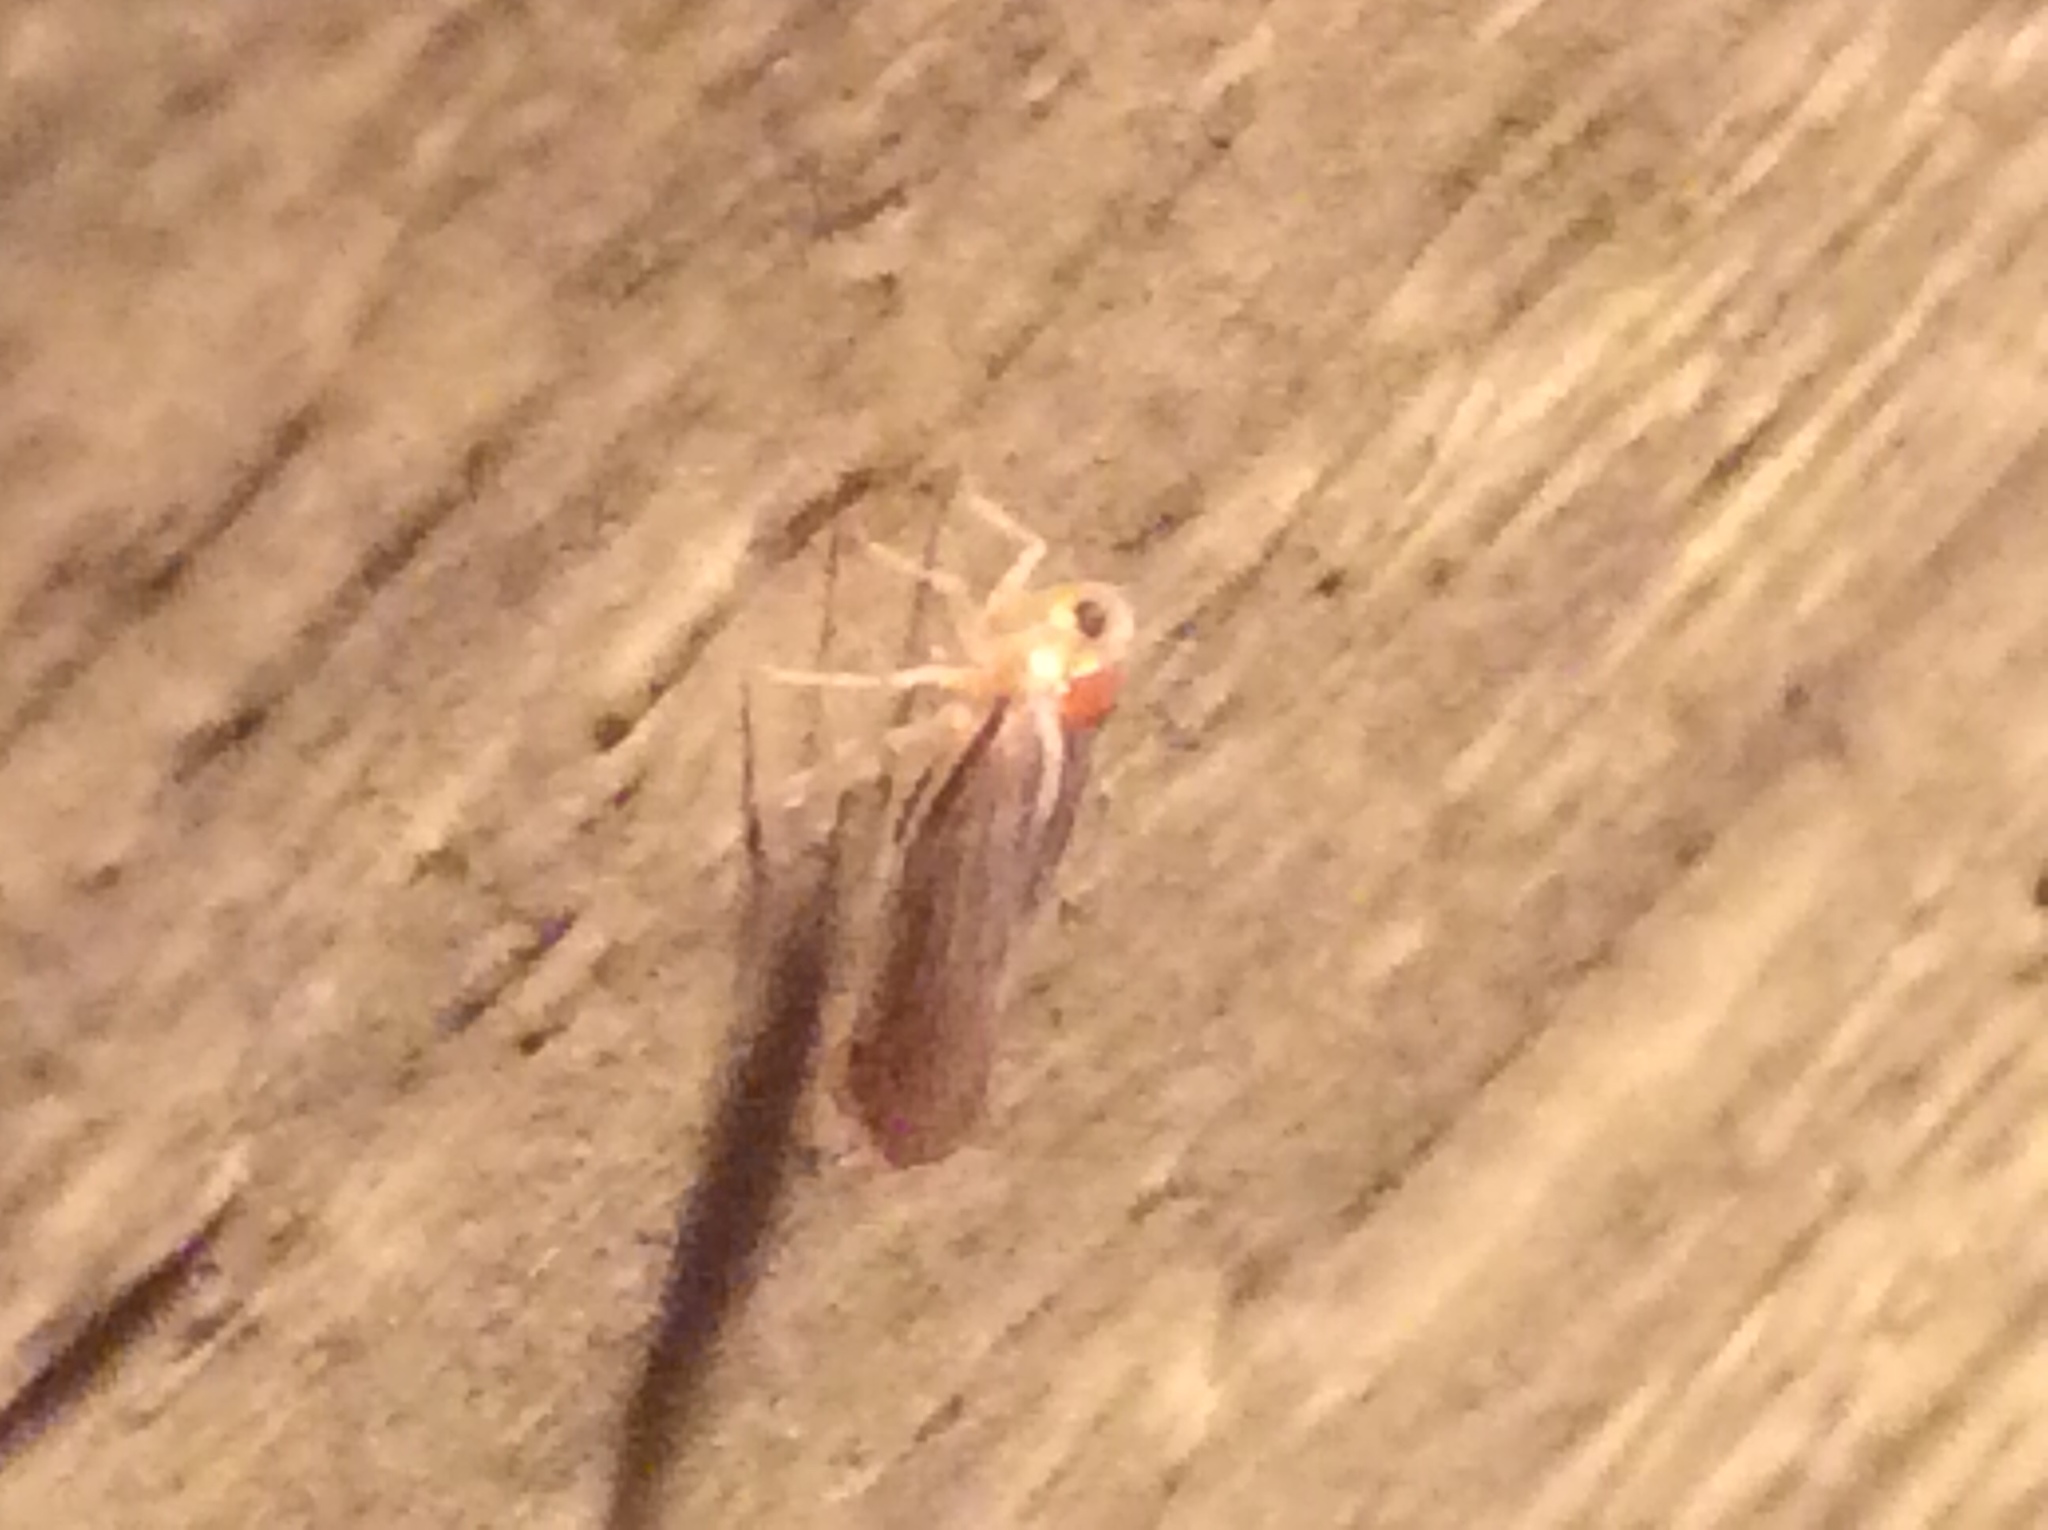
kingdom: Animalia
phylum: Arthropoda
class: Insecta
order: Hemiptera
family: Derbidae
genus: Omolicna
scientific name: Omolicna uhleri
